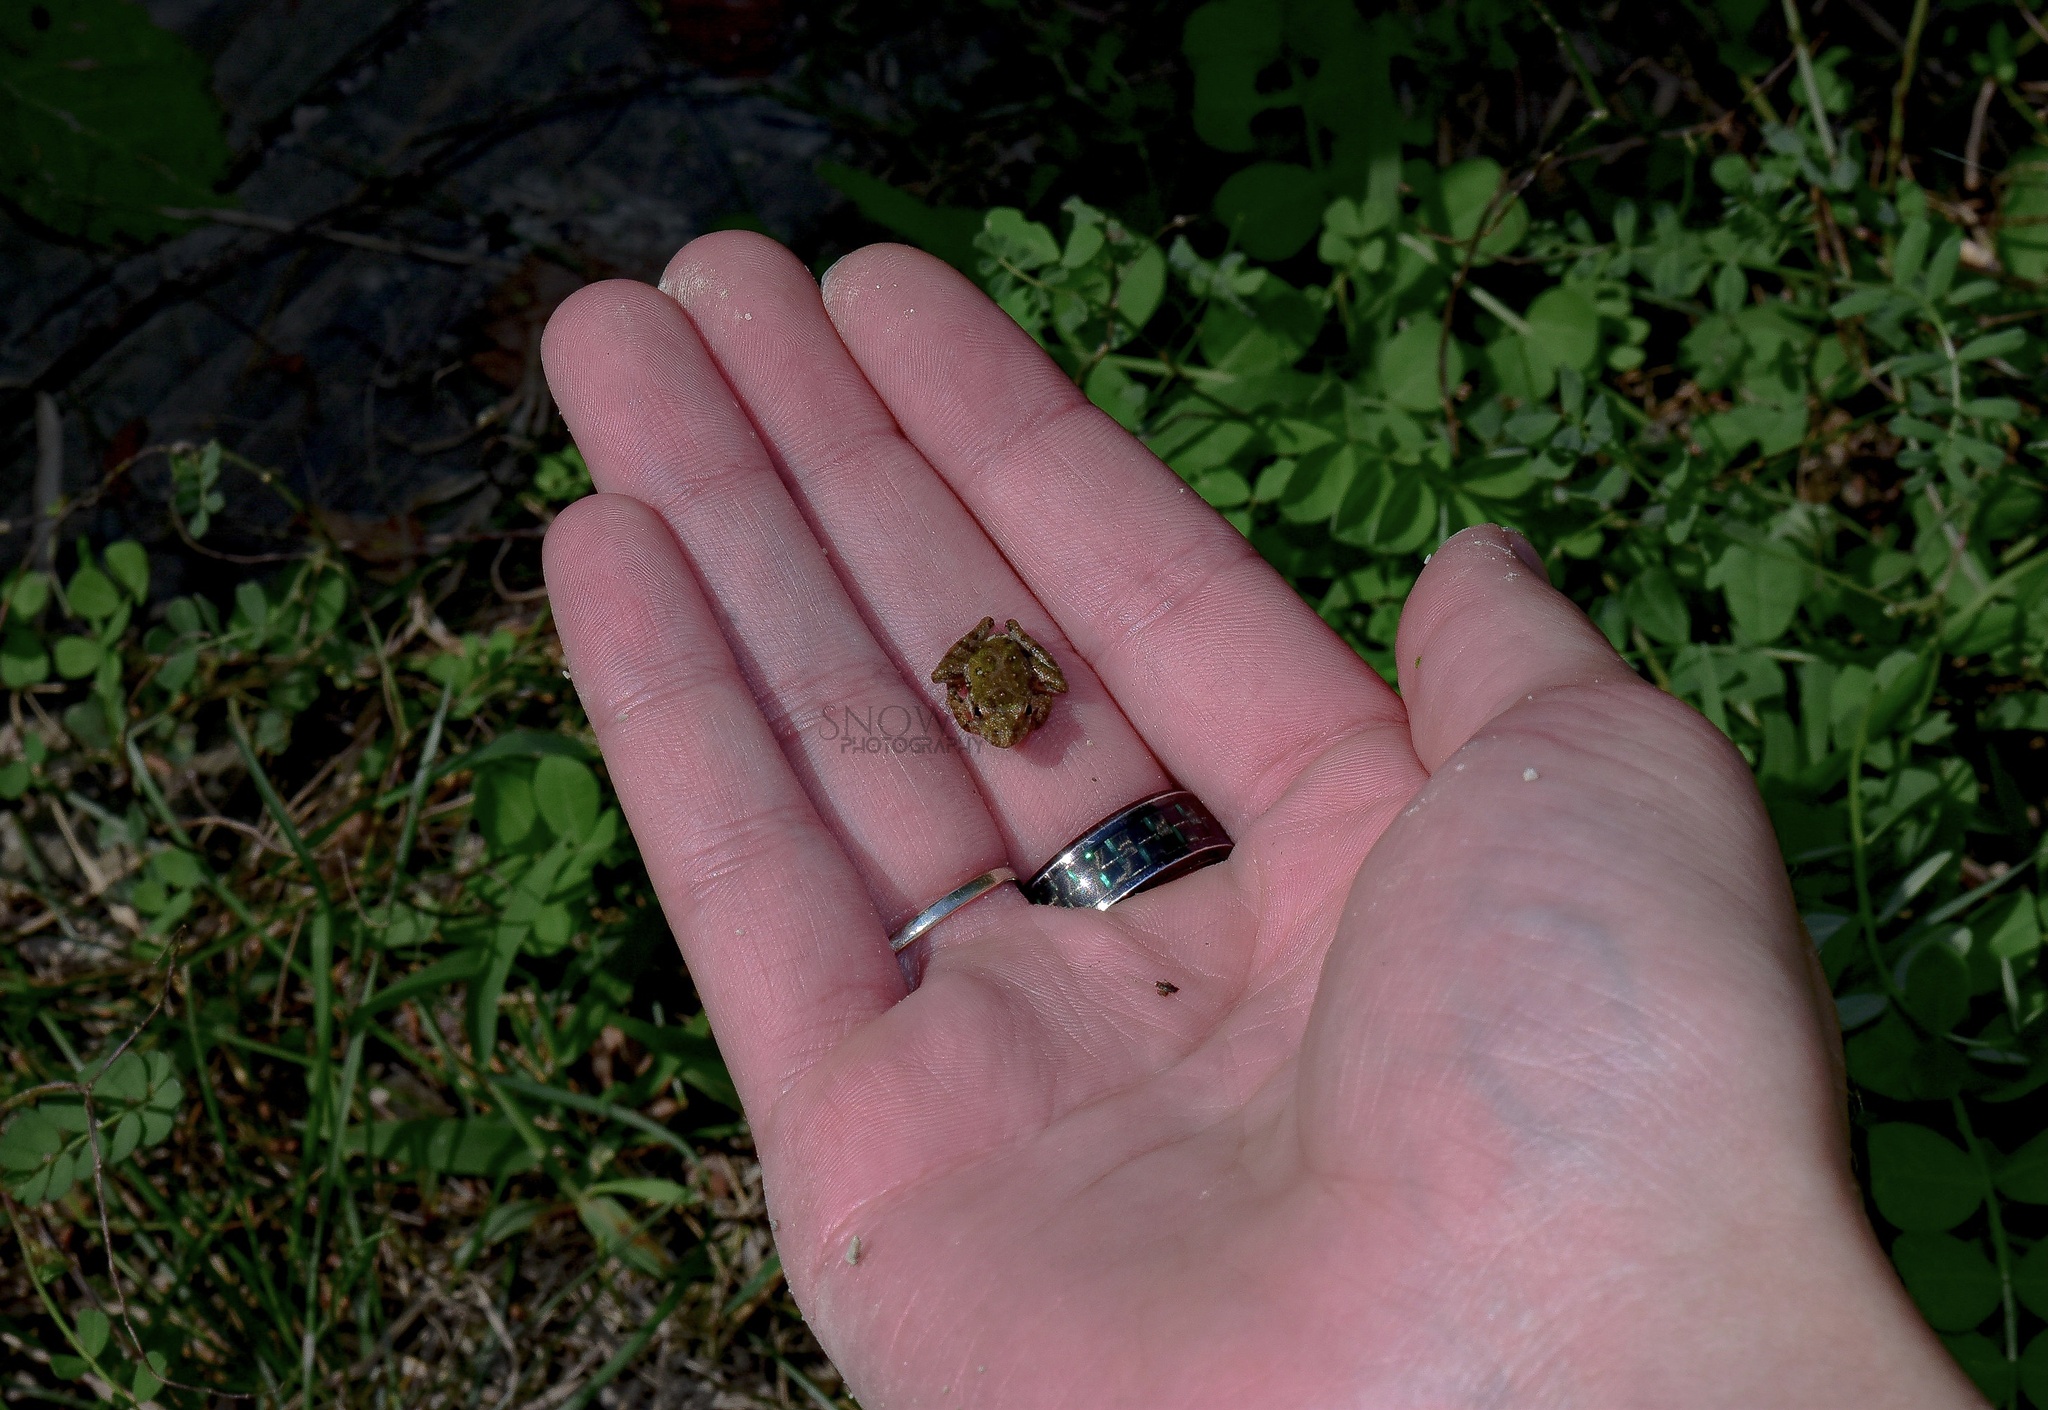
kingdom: Animalia
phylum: Chordata
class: Amphibia
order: Anura
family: Hylidae
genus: Acris
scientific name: Acris blanchardi
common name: Blanchard's cricket frog
